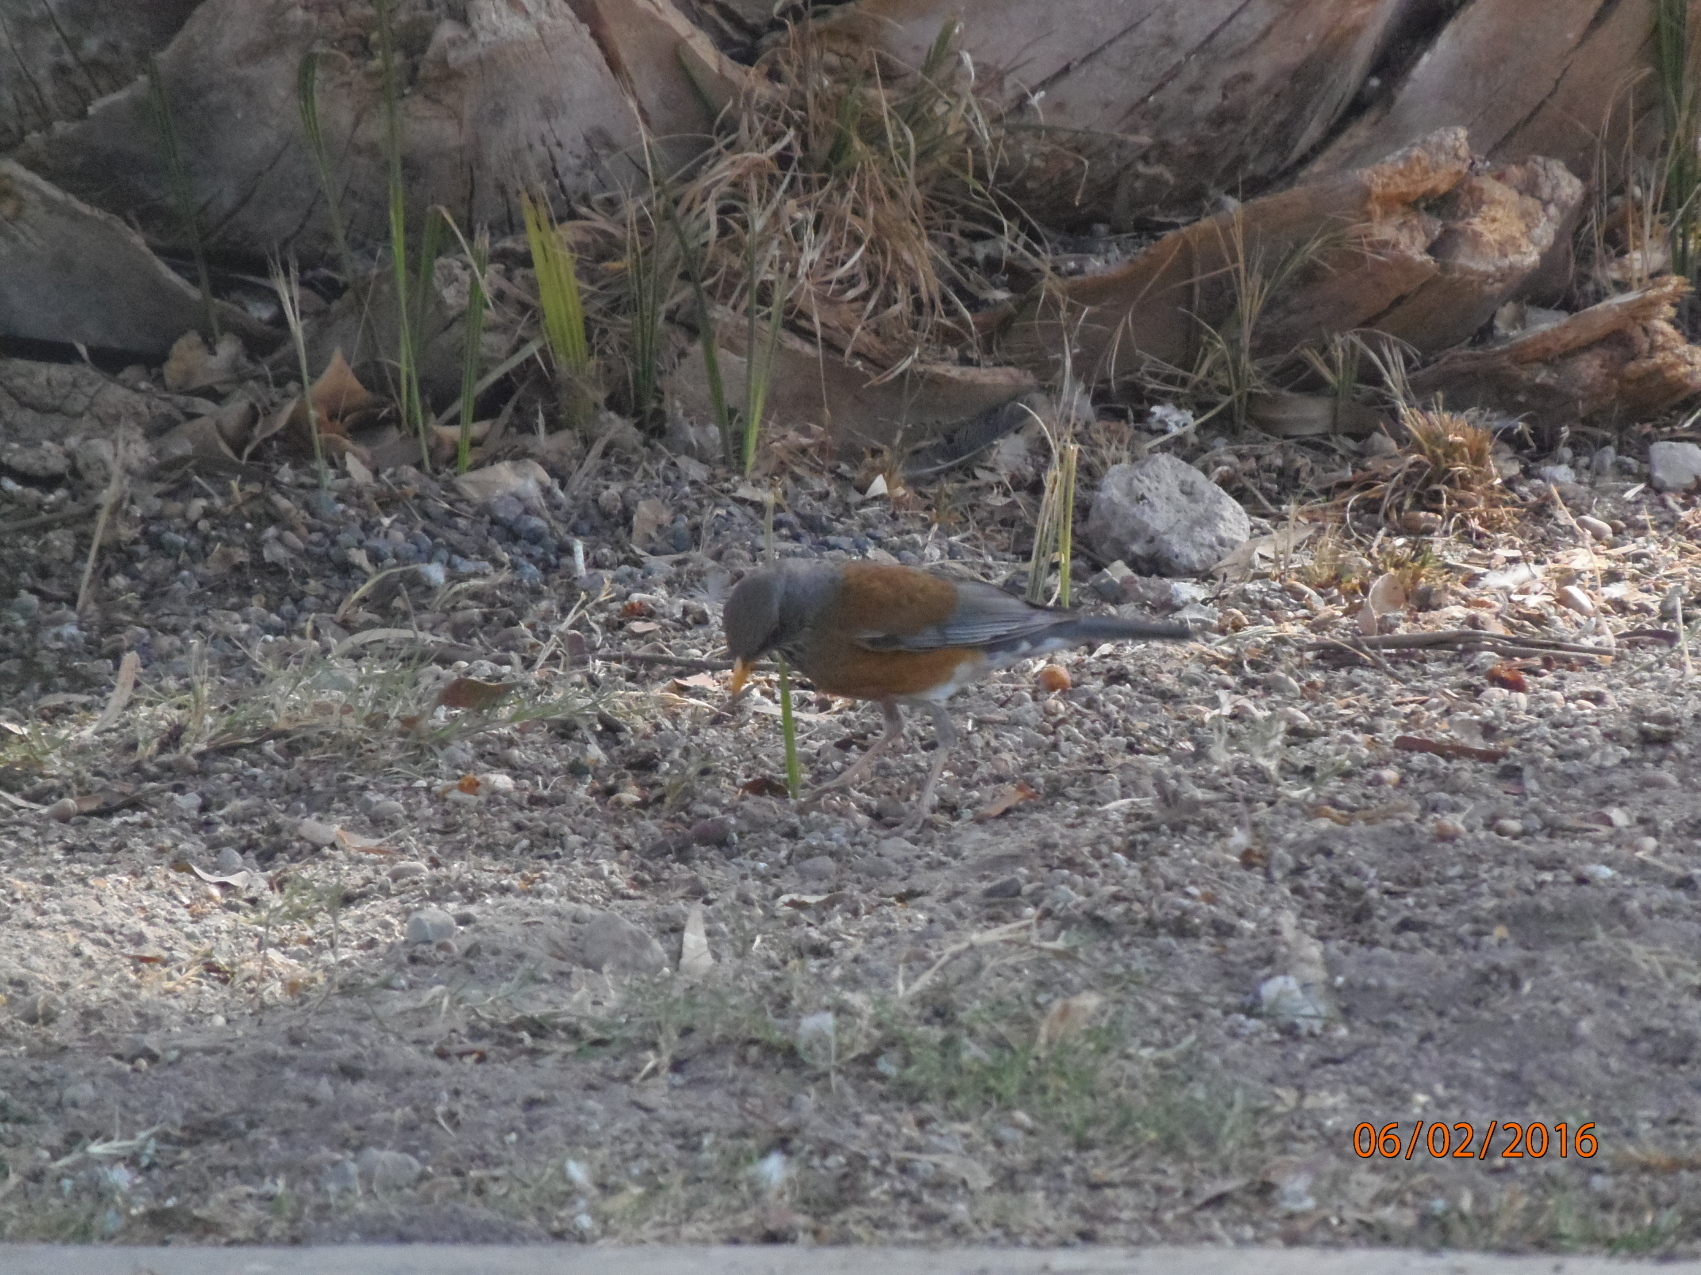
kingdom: Animalia
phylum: Chordata
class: Aves
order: Passeriformes
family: Turdidae
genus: Turdus
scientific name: Turdus rufopalliatus
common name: Rufous-backed robin
